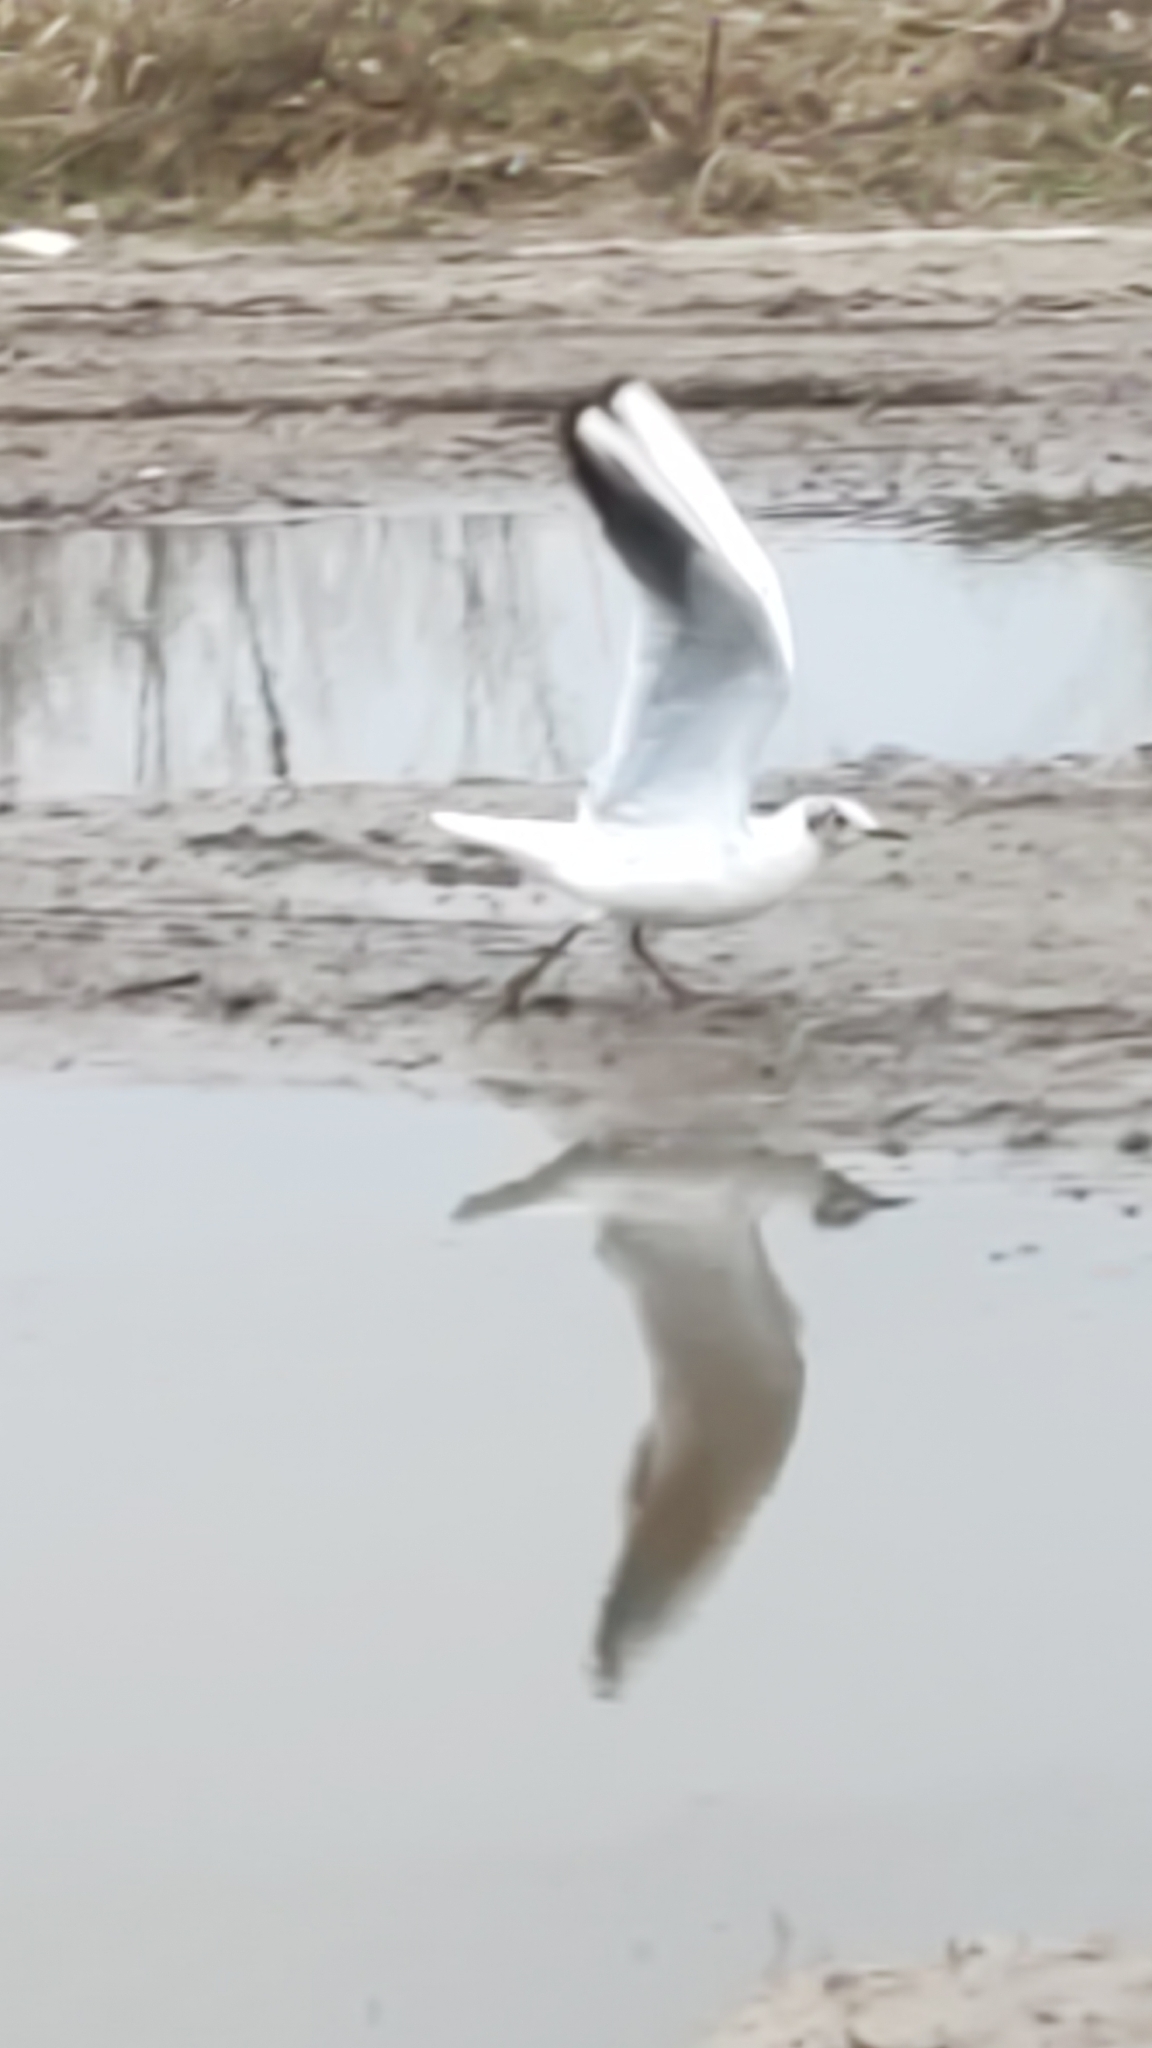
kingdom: Animalia
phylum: Chordata
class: Aves
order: Charadriiformes
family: Laridae
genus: Chroicocephalus
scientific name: Chroicocephalus ridibundus
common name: Black-headed gull
